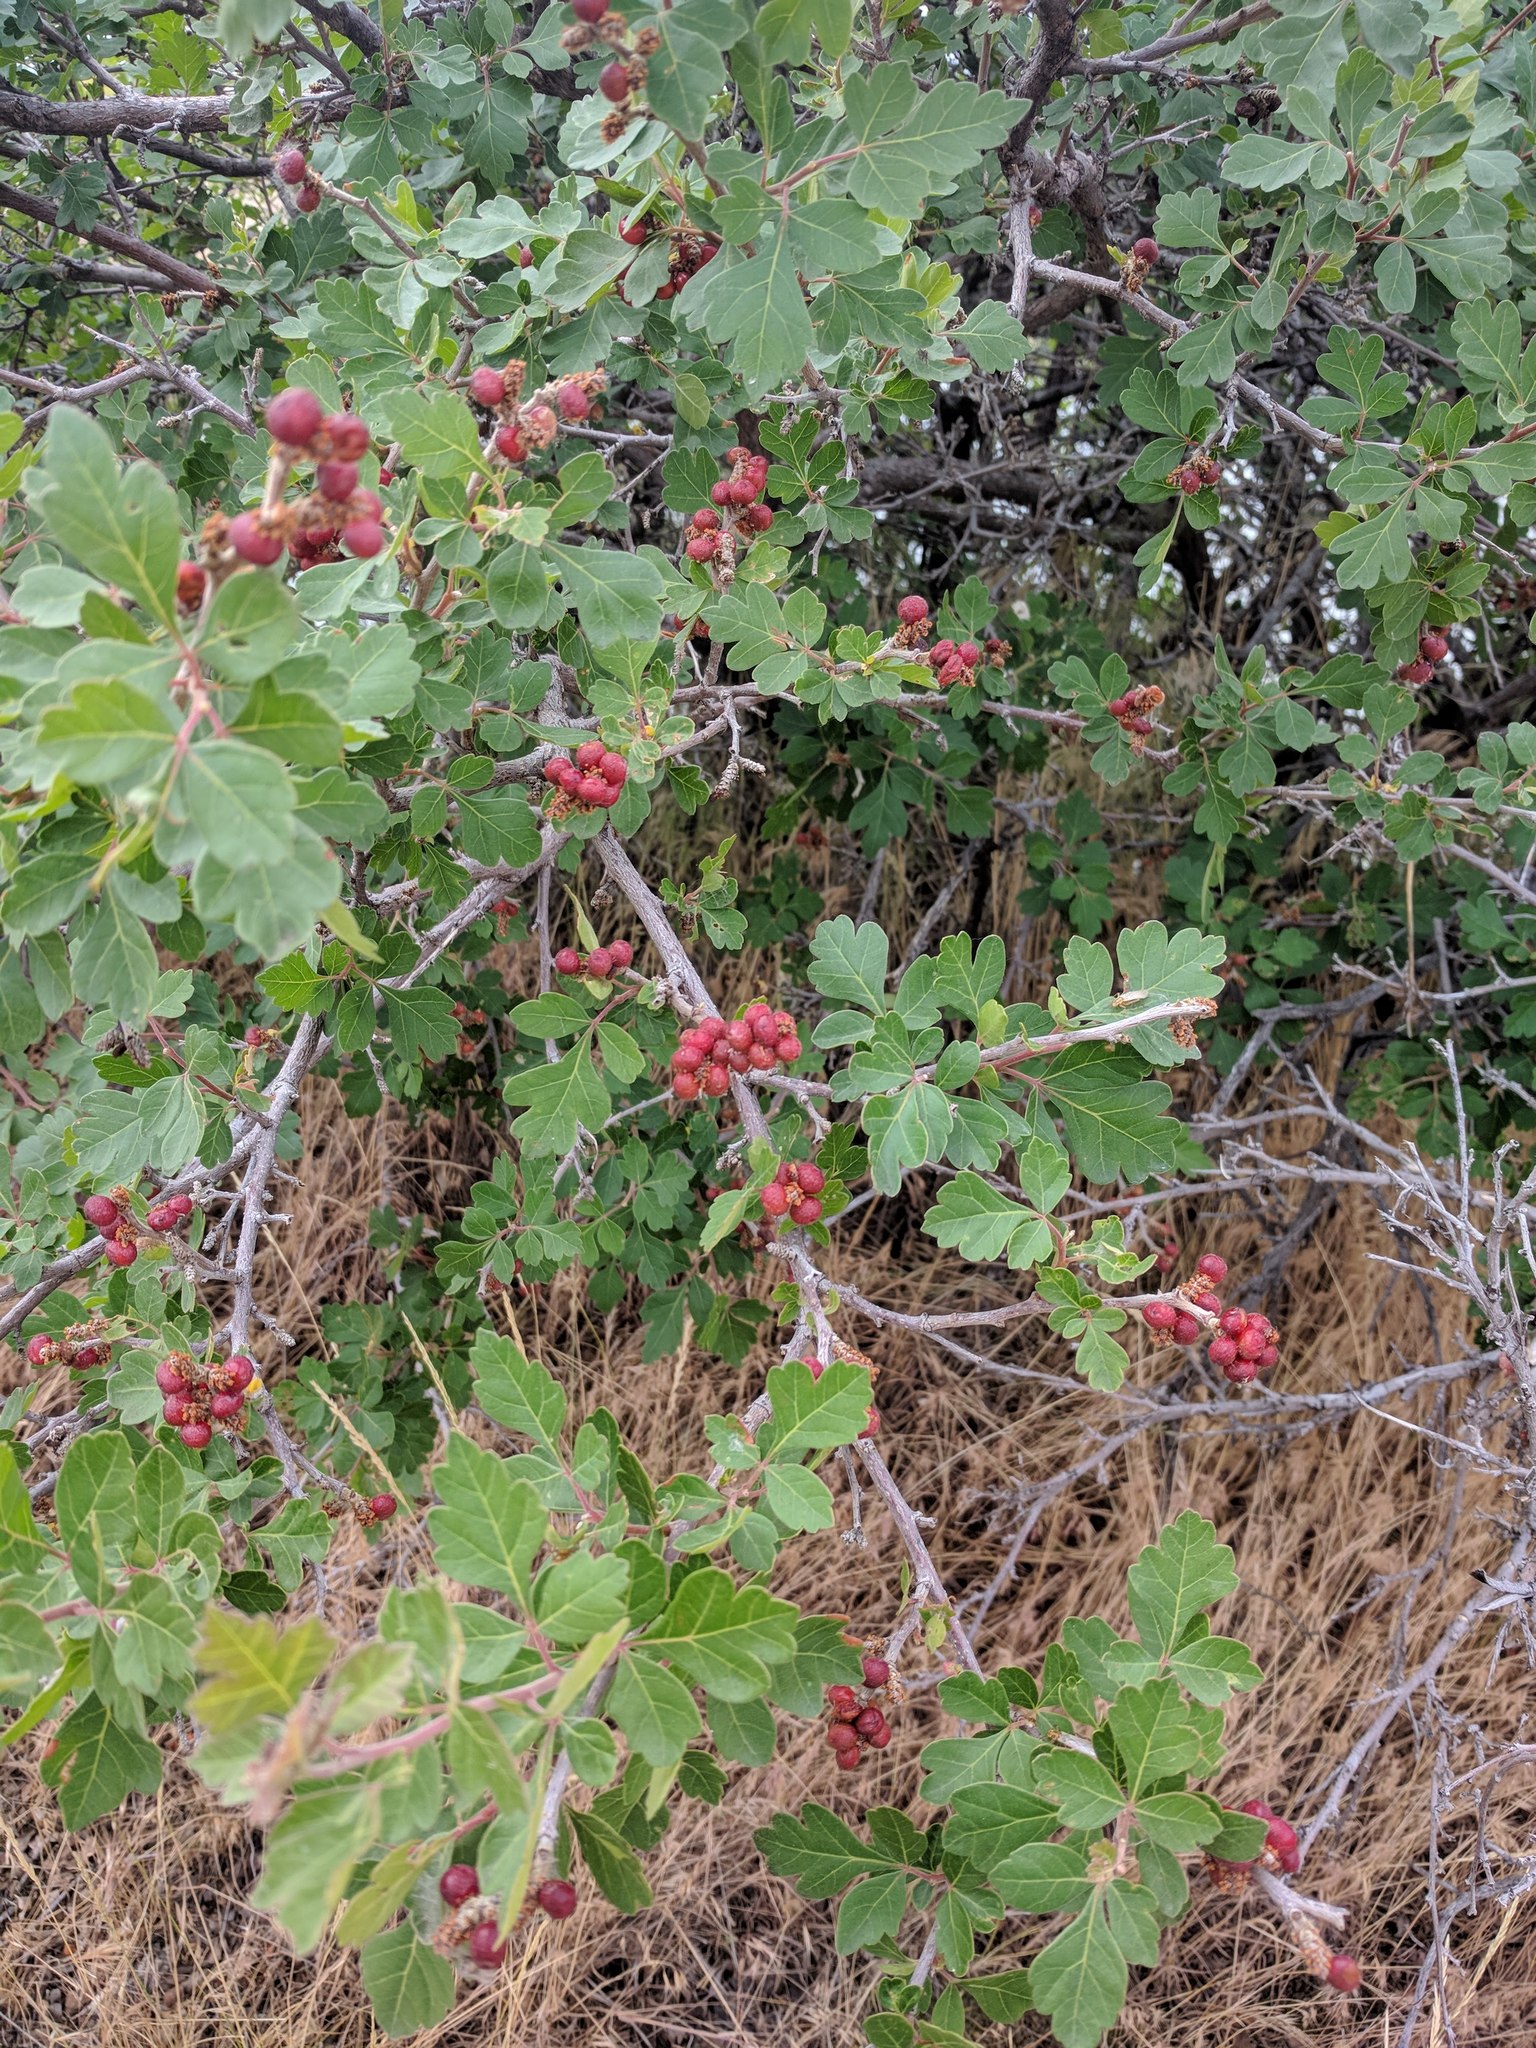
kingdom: Plantae
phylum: Tracheophyta
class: Magnoliopsida
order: Sapindales
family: Anacardiaceae
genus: Rhus
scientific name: Rhus aromatica
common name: Aromatic sumac
